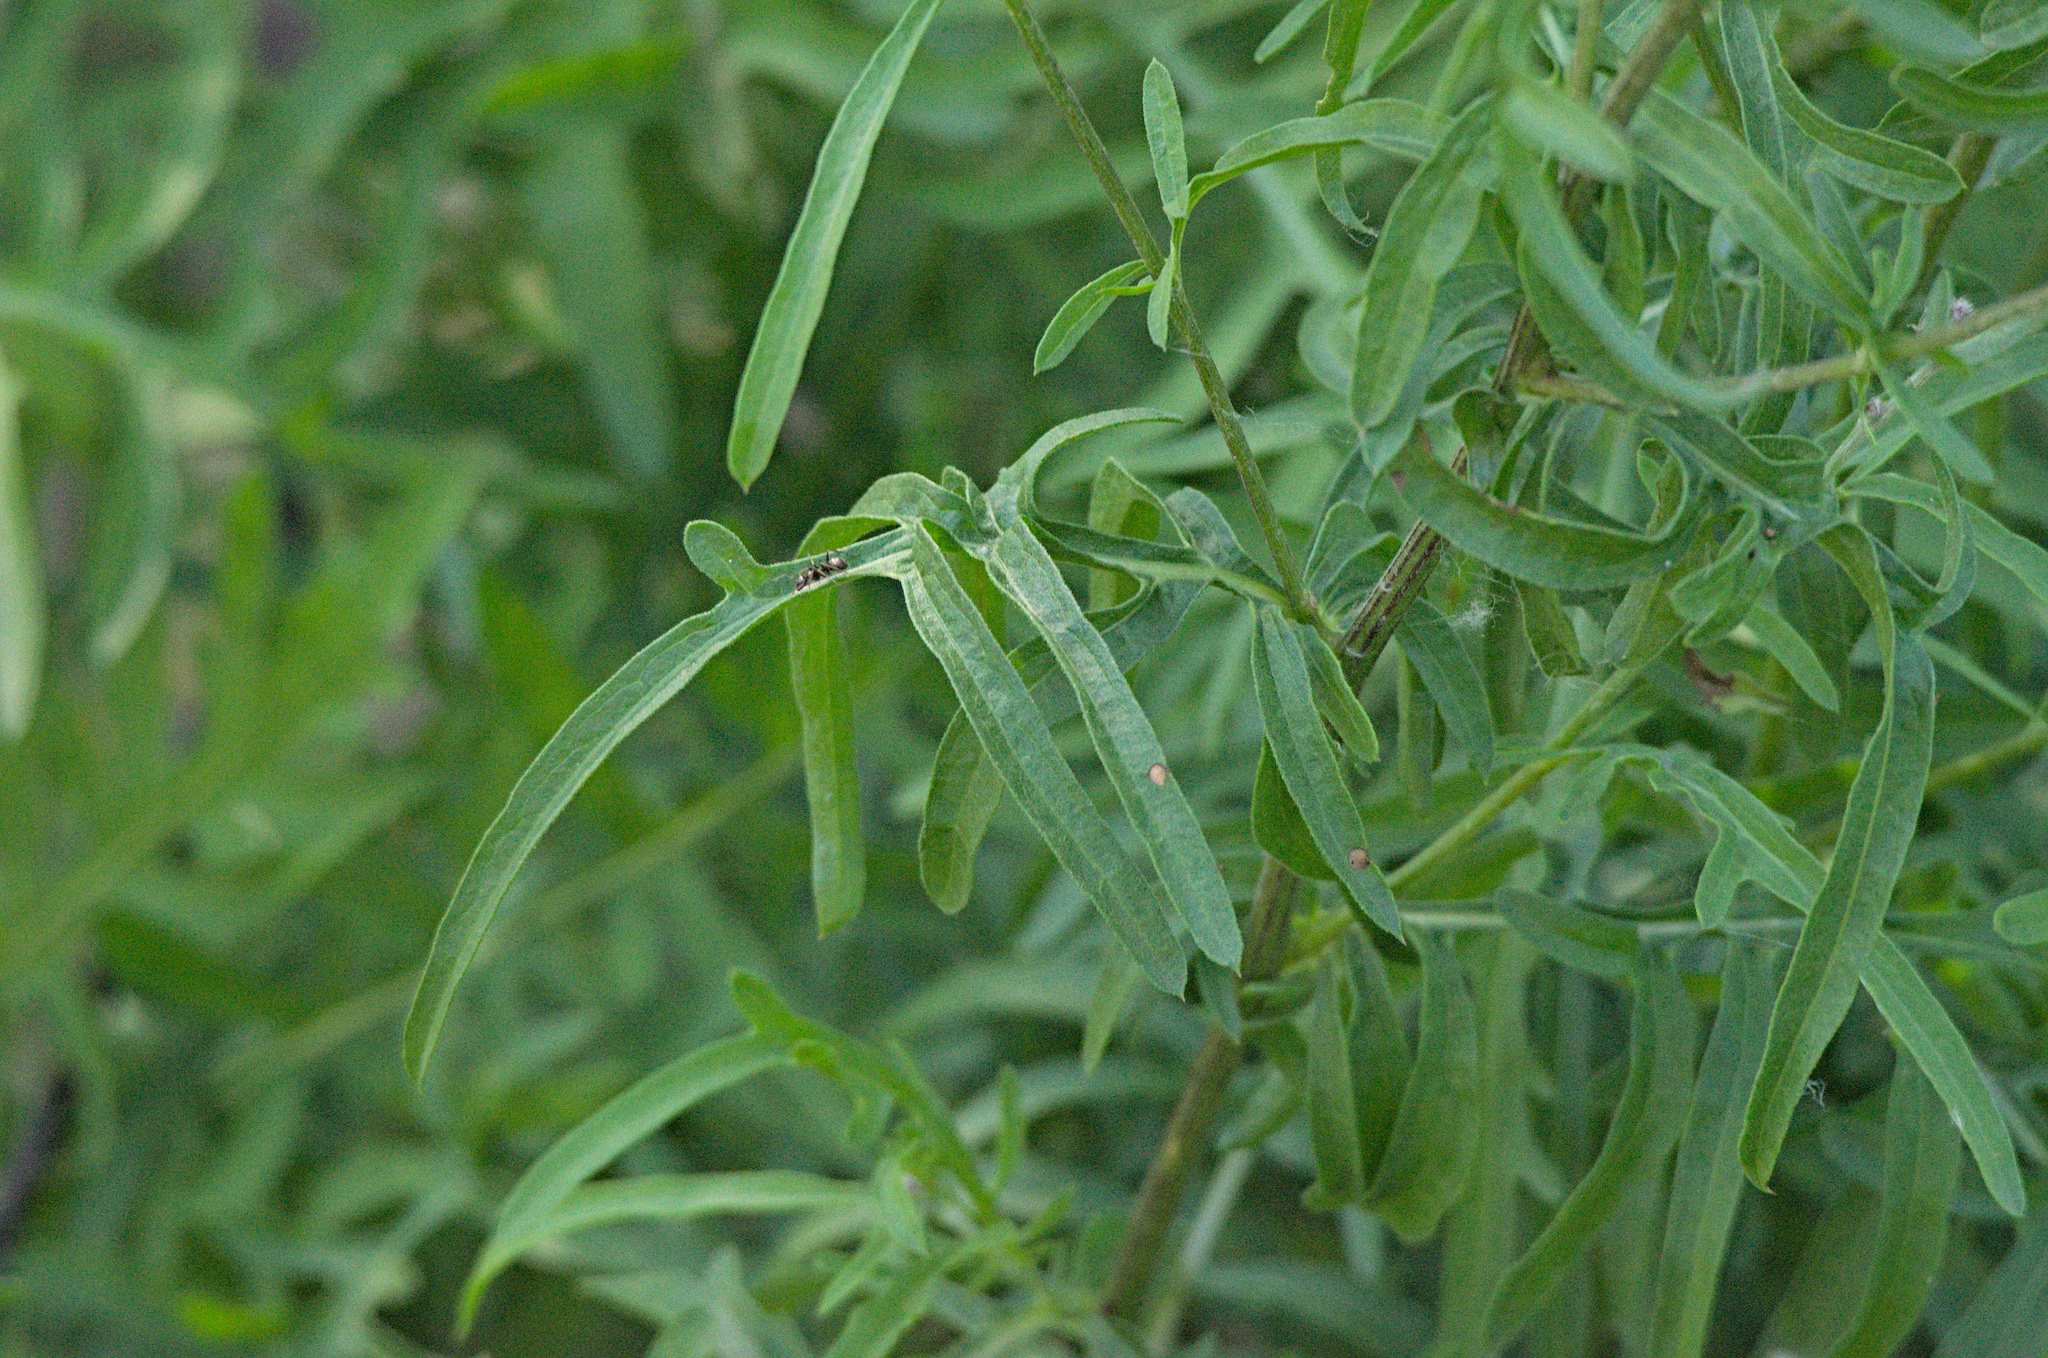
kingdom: Plantae
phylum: Tracheophyta
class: Magnoliopsida
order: Asterales
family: Asteraceae
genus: Centaurea
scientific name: Centaurea scabiosa
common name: Greater knapweed
